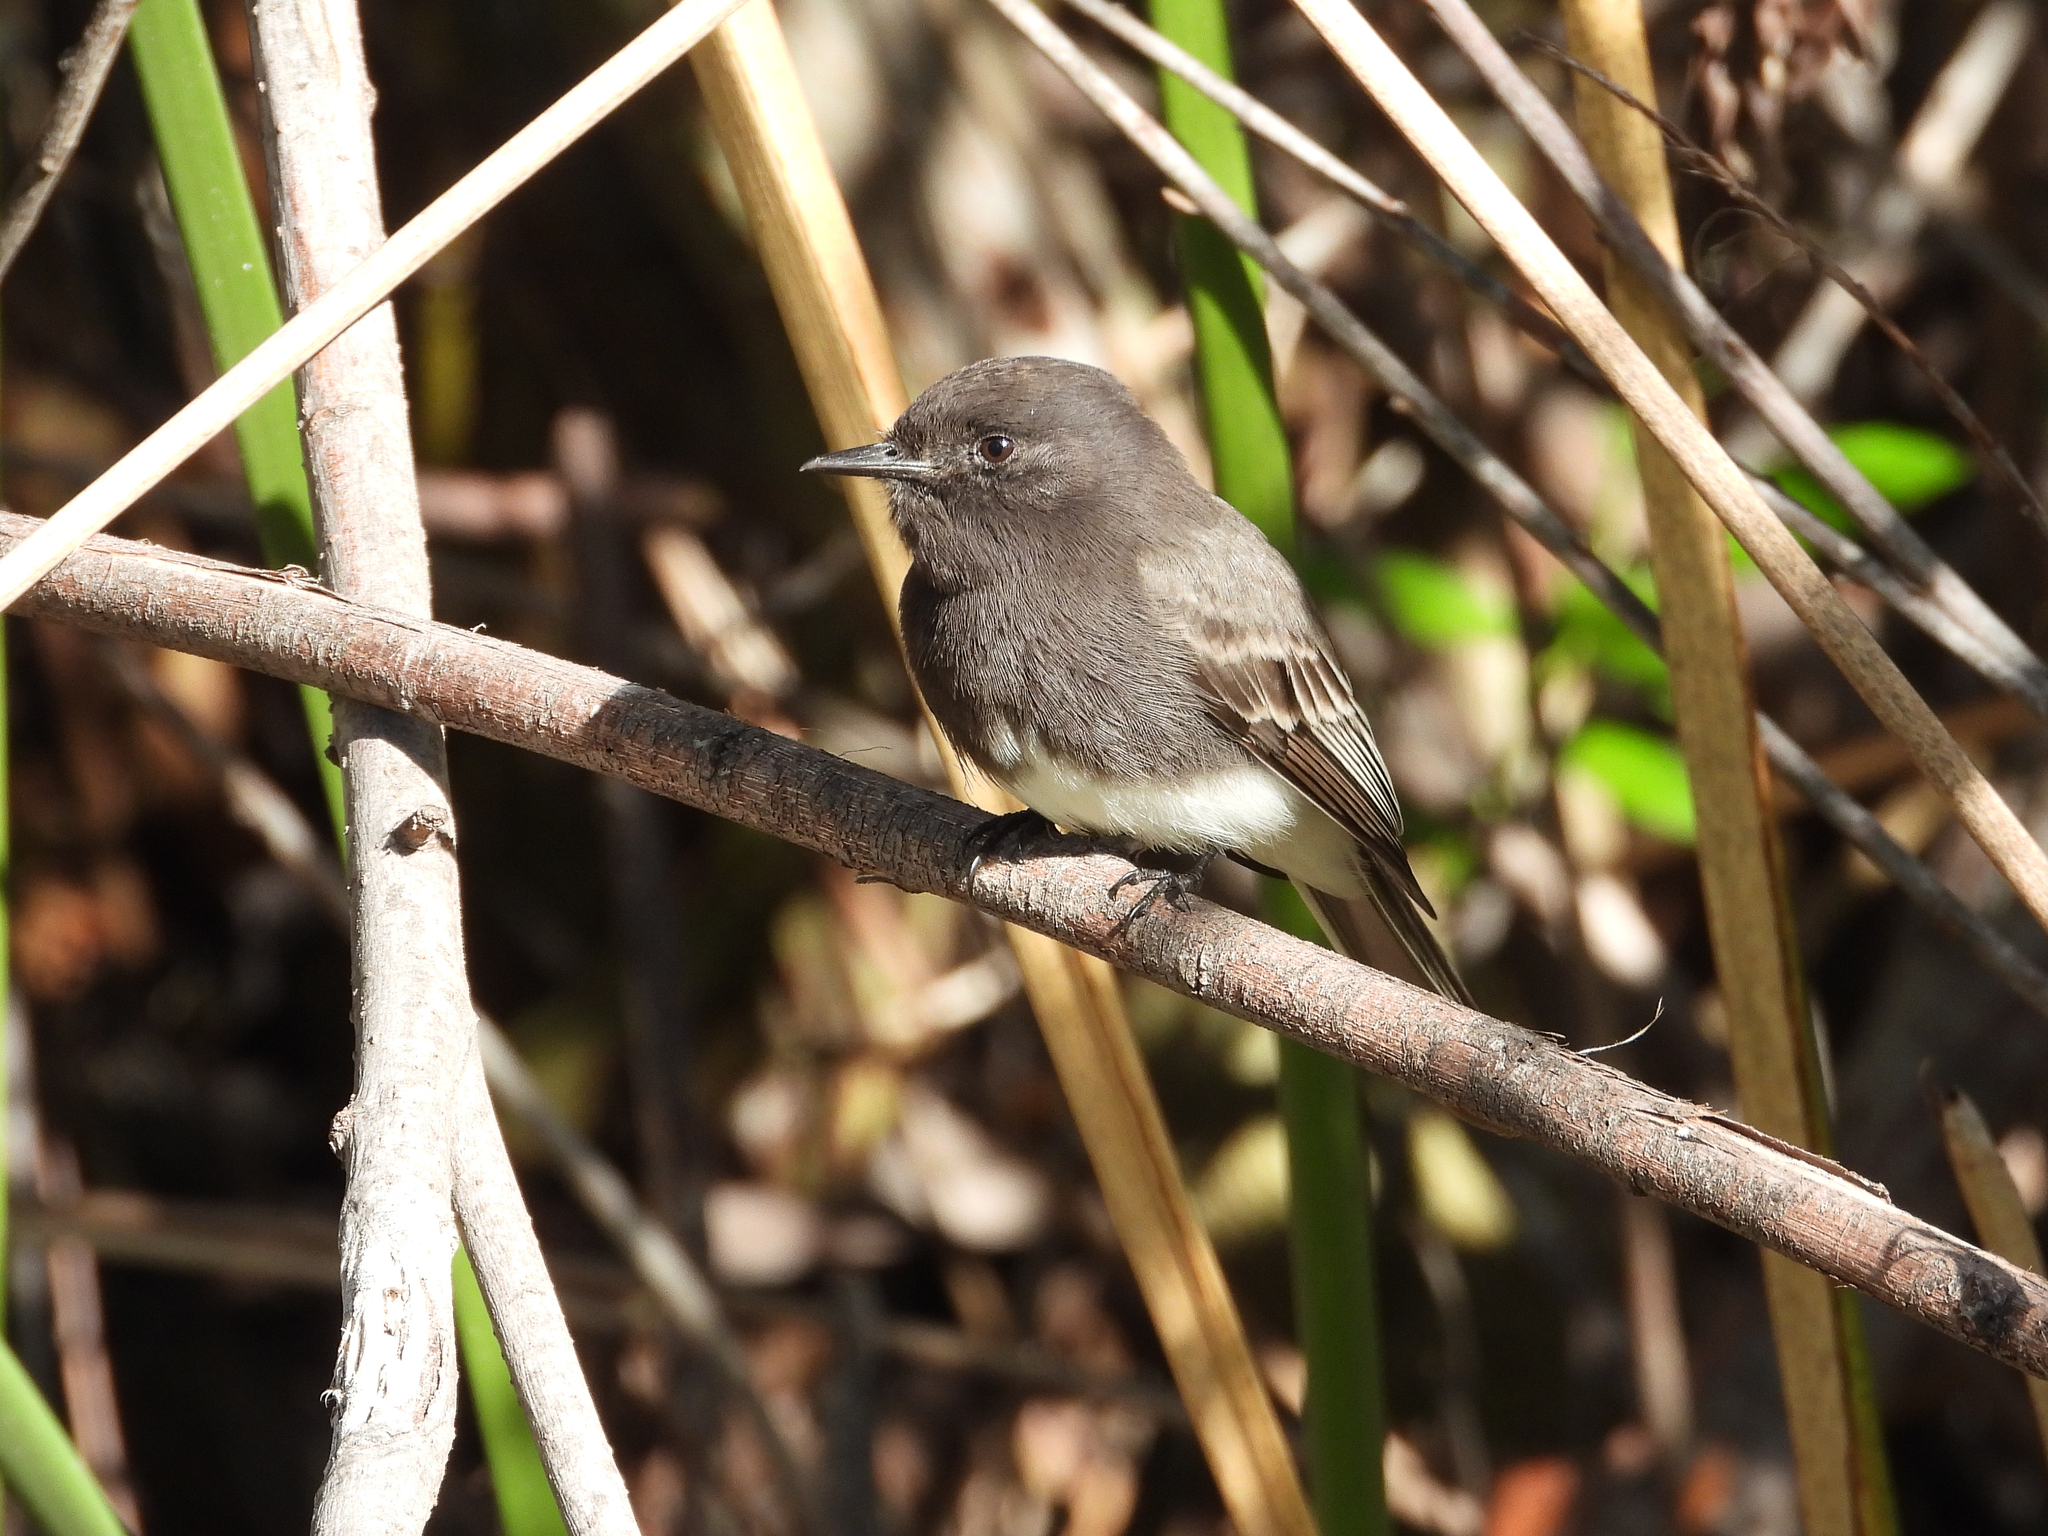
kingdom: Animalia
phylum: Chordata
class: Aves
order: Passeriformes
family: Tyrannidae
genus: Sayornis
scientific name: Sayornis nigricans
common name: Black phoebe
